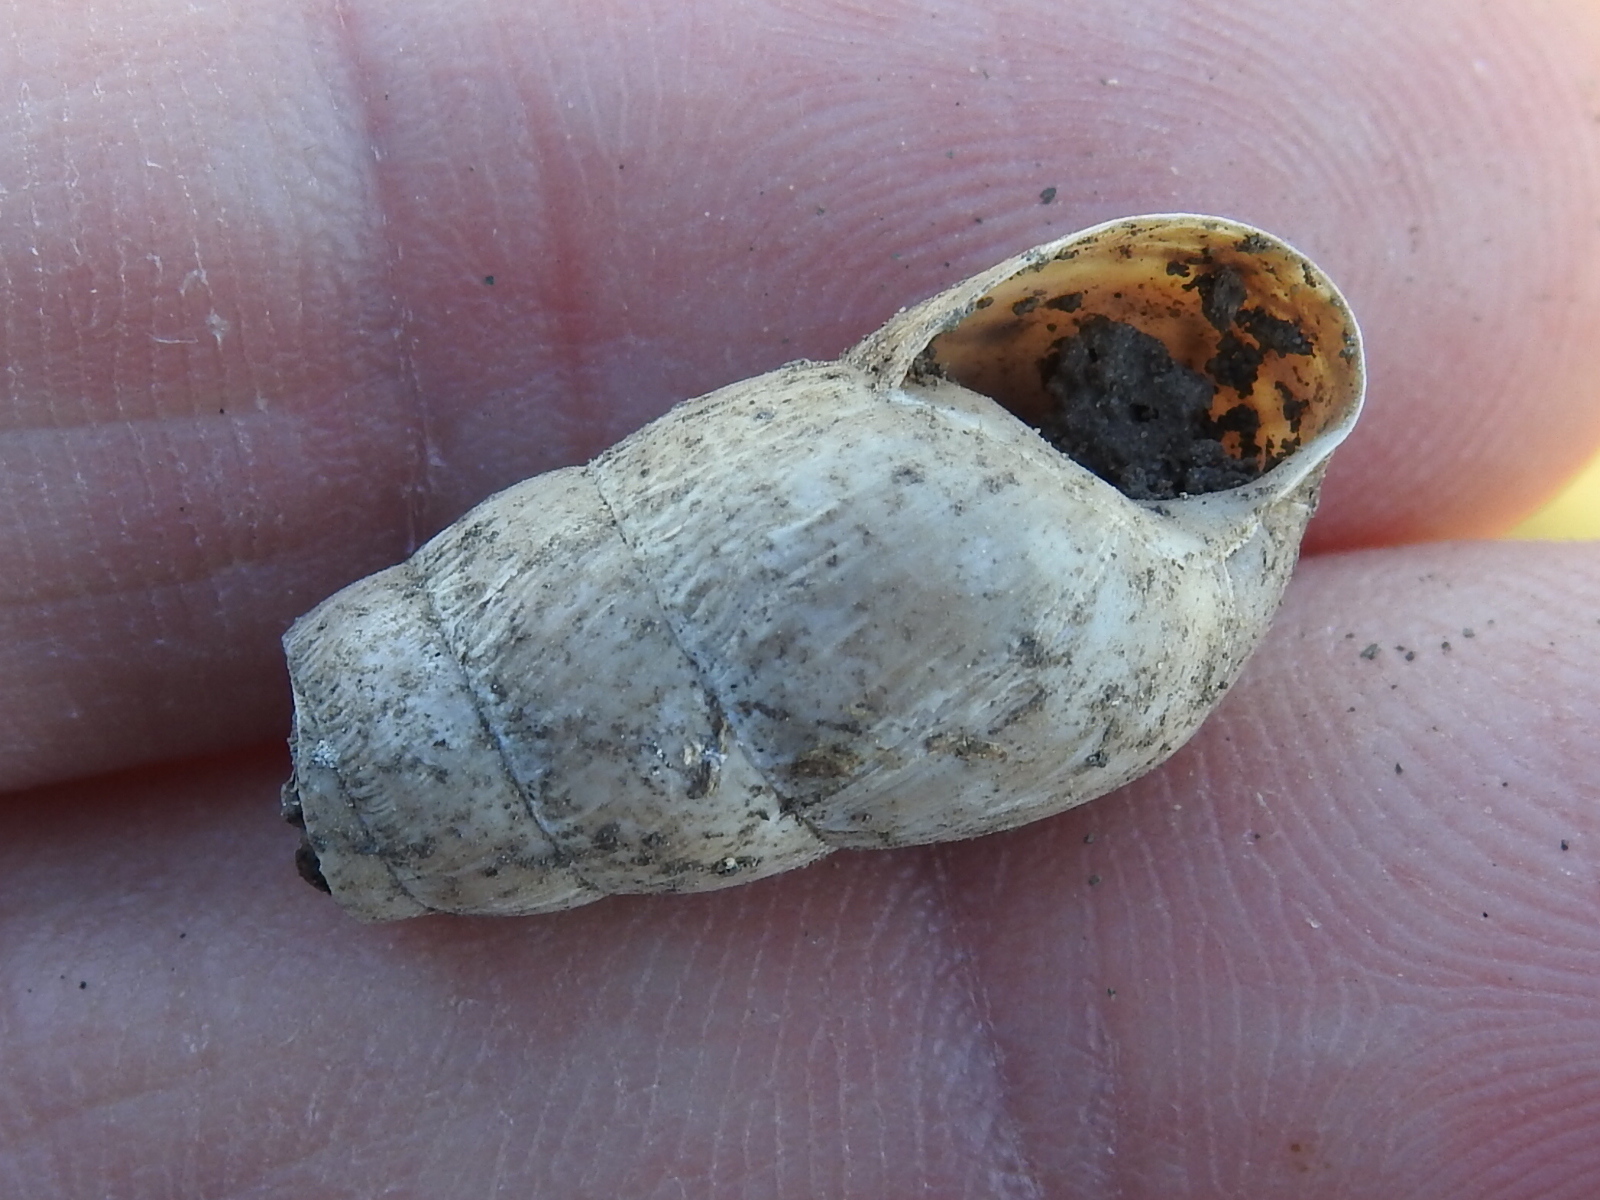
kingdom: Animalia
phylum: Mollusca
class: Gastropoda
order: Stylommatophora
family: Achatinidae
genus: Rumina
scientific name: Rumina decollata
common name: Decollate snail
